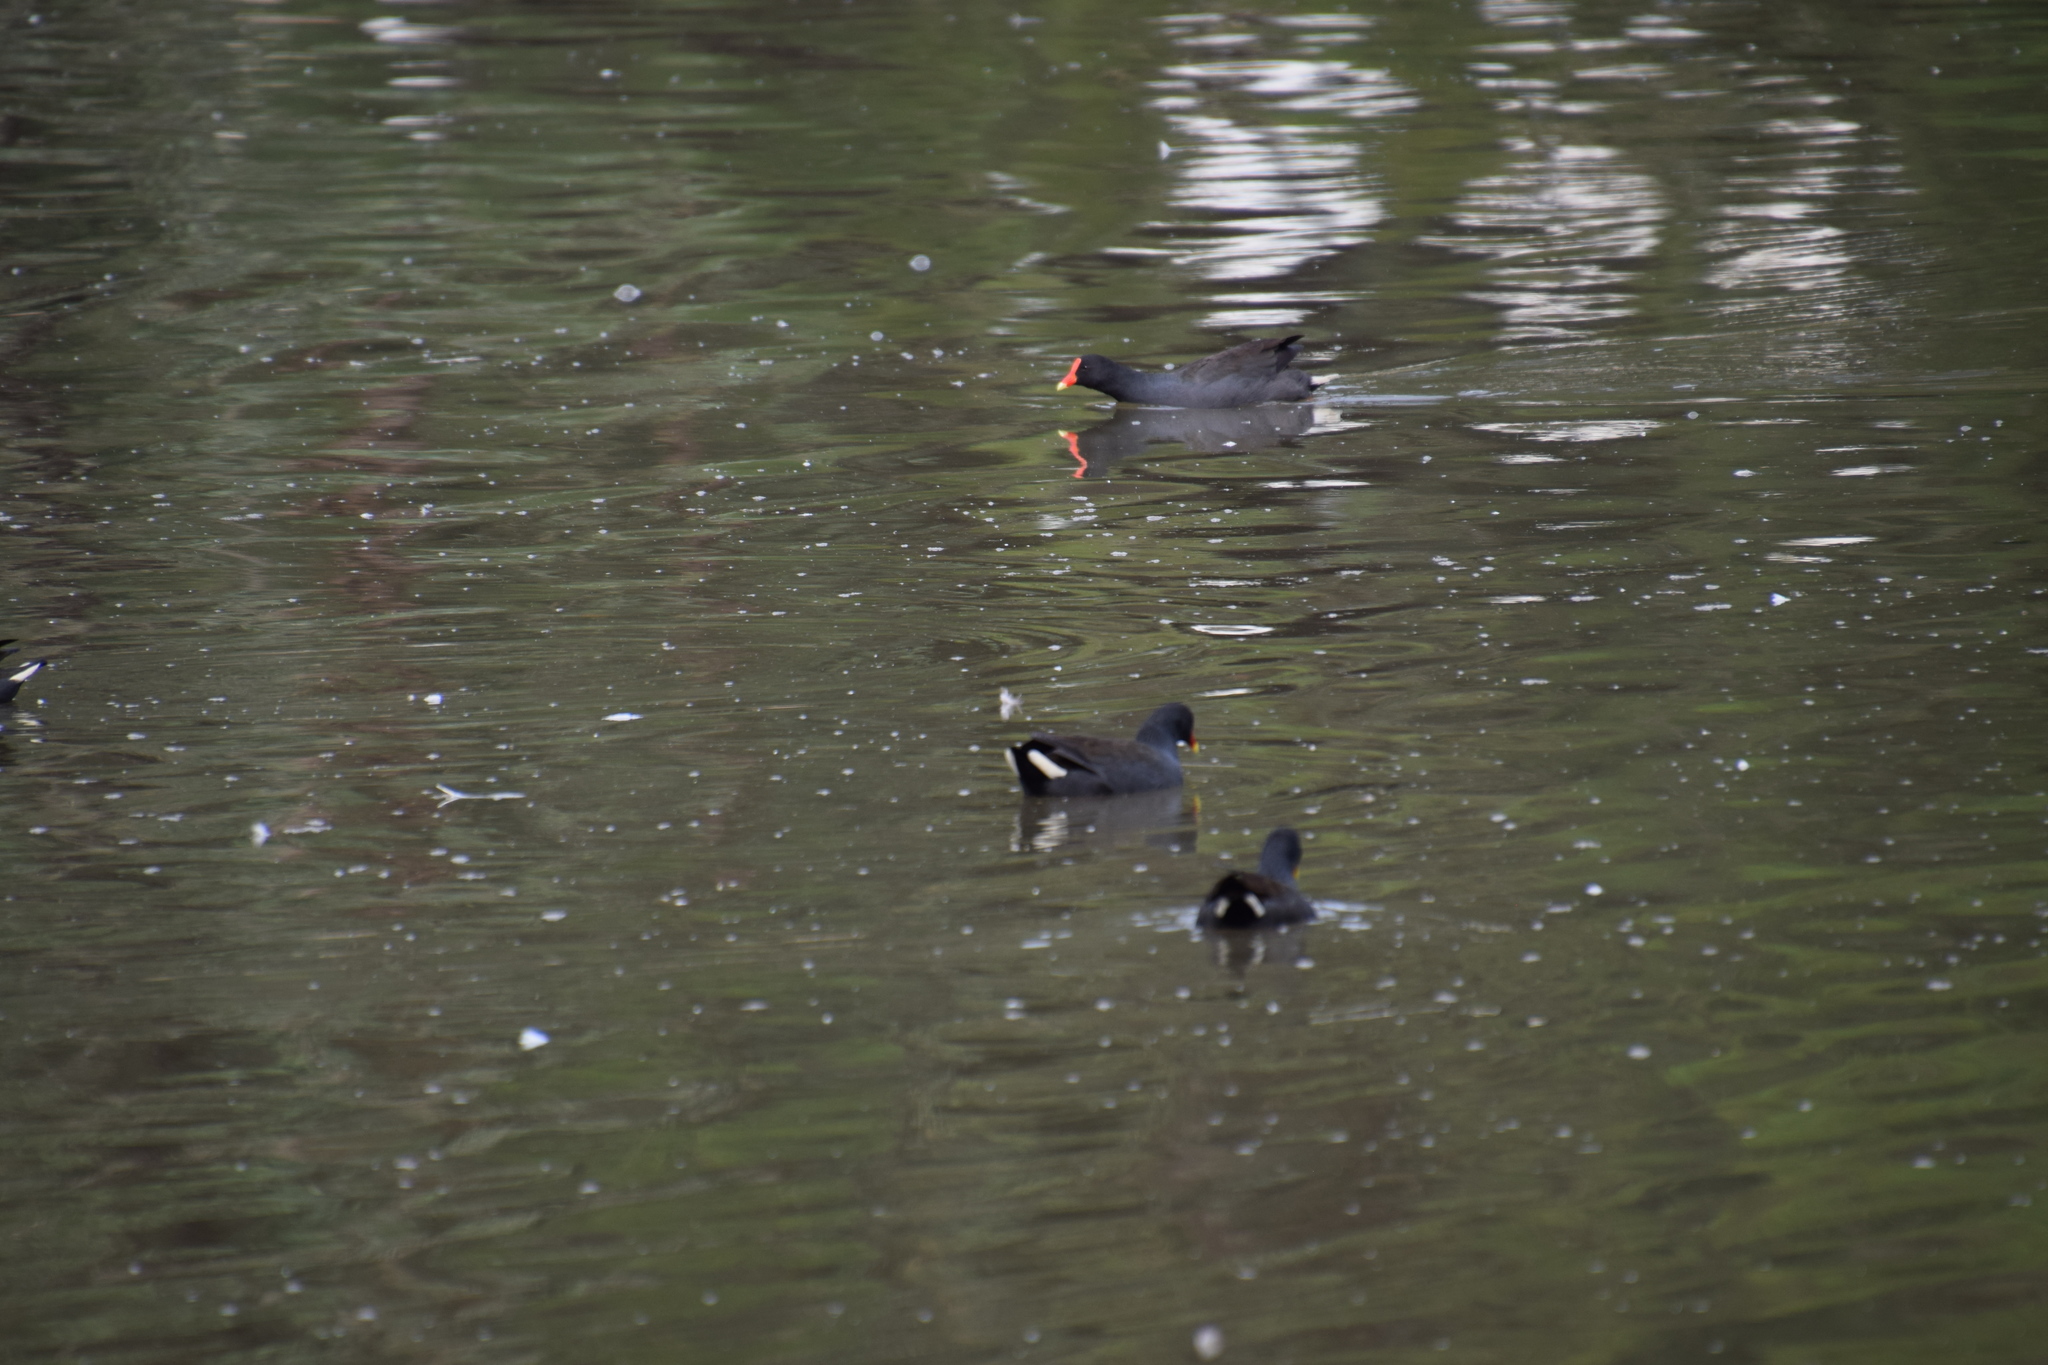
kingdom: Animalia
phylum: Chordata
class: Aves
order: Gruiformes
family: Rallidae
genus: Gallinula
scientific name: Gallinula tenebrosa
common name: Dusky moorhen
